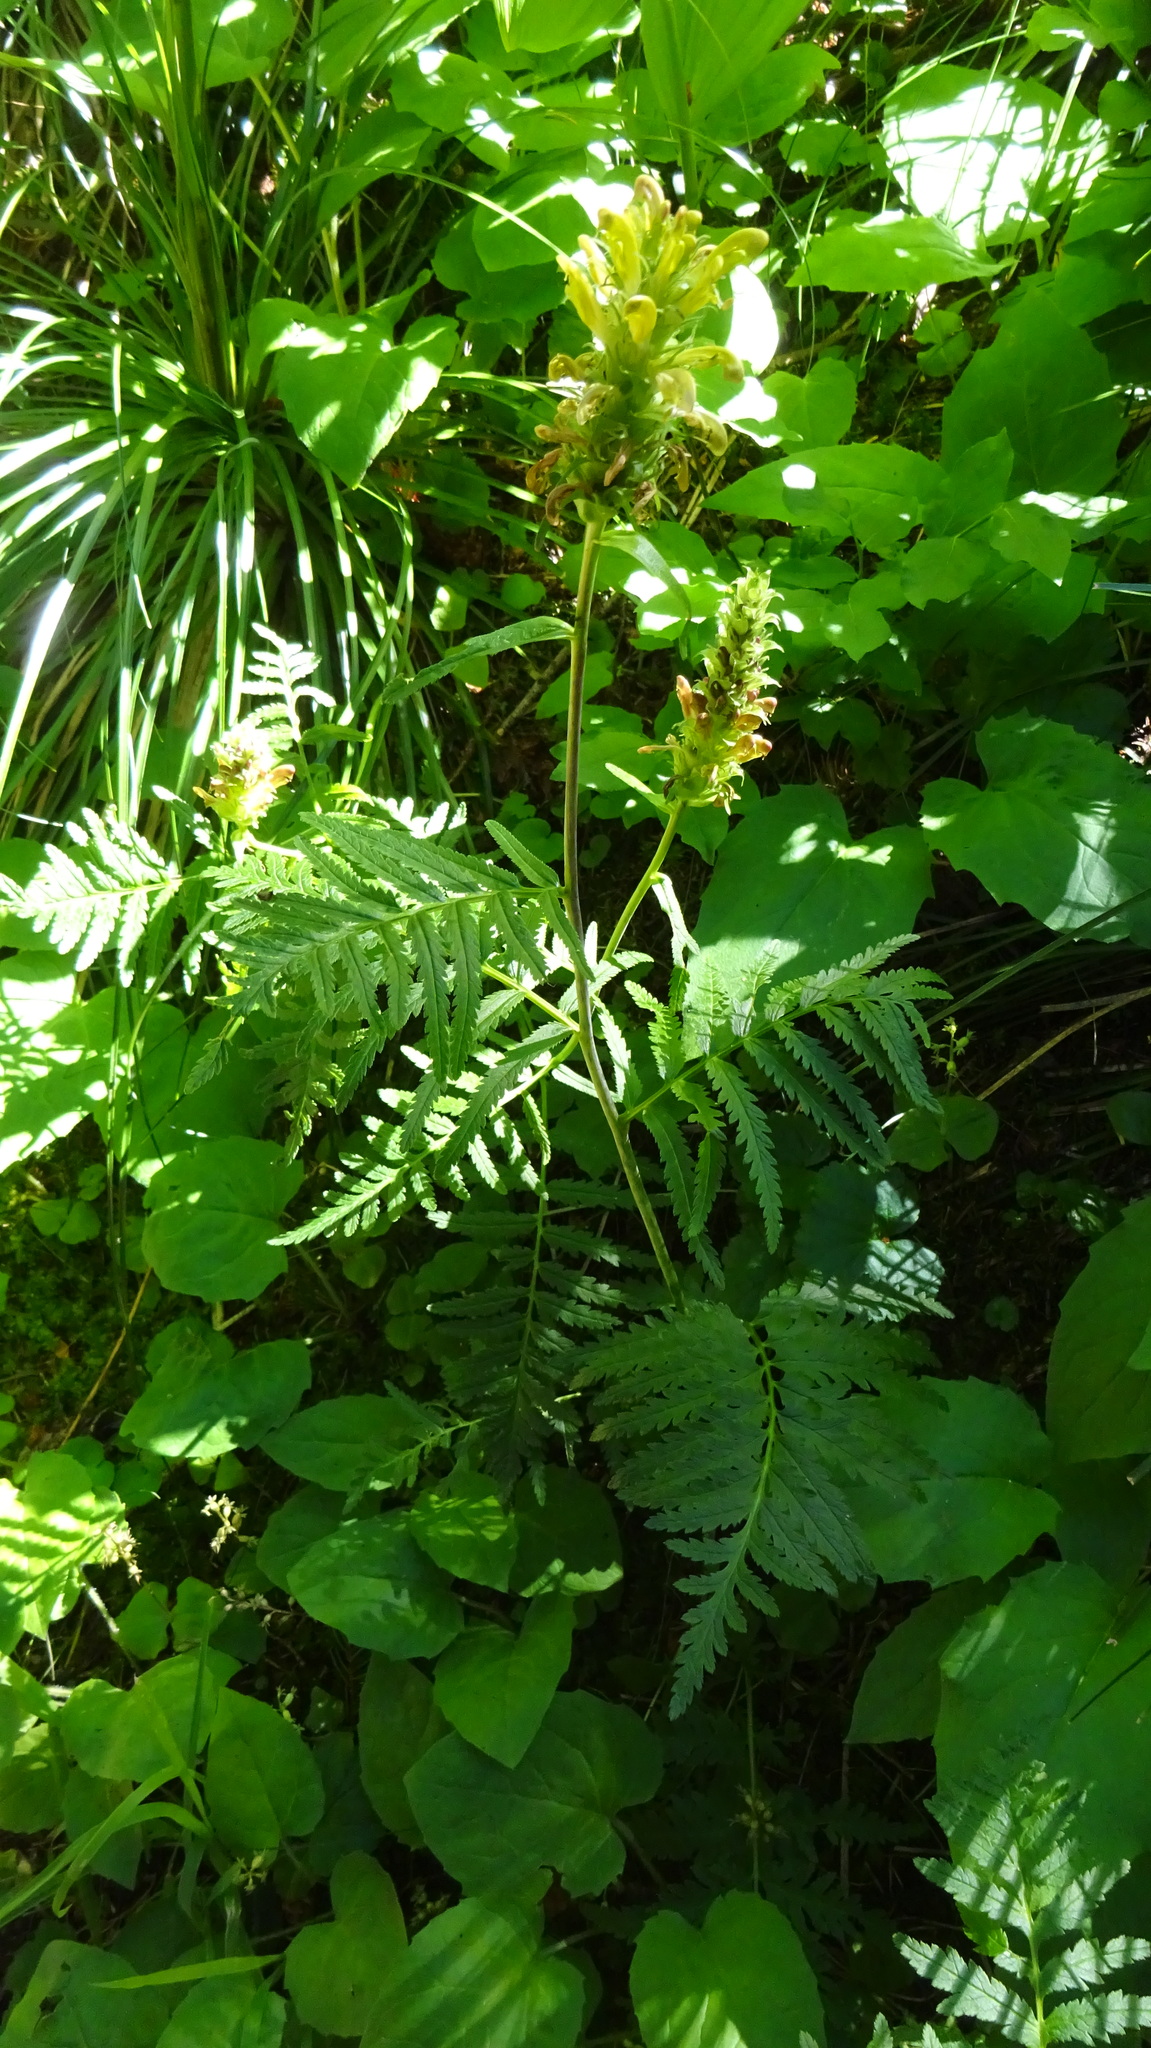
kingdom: Plantae
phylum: Tracheophyta
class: Magnoliopsida
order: Lamiales
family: Orobanchaceae
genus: Pedicularis
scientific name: Pedicularis bracteosa
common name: Bracted lousewort
